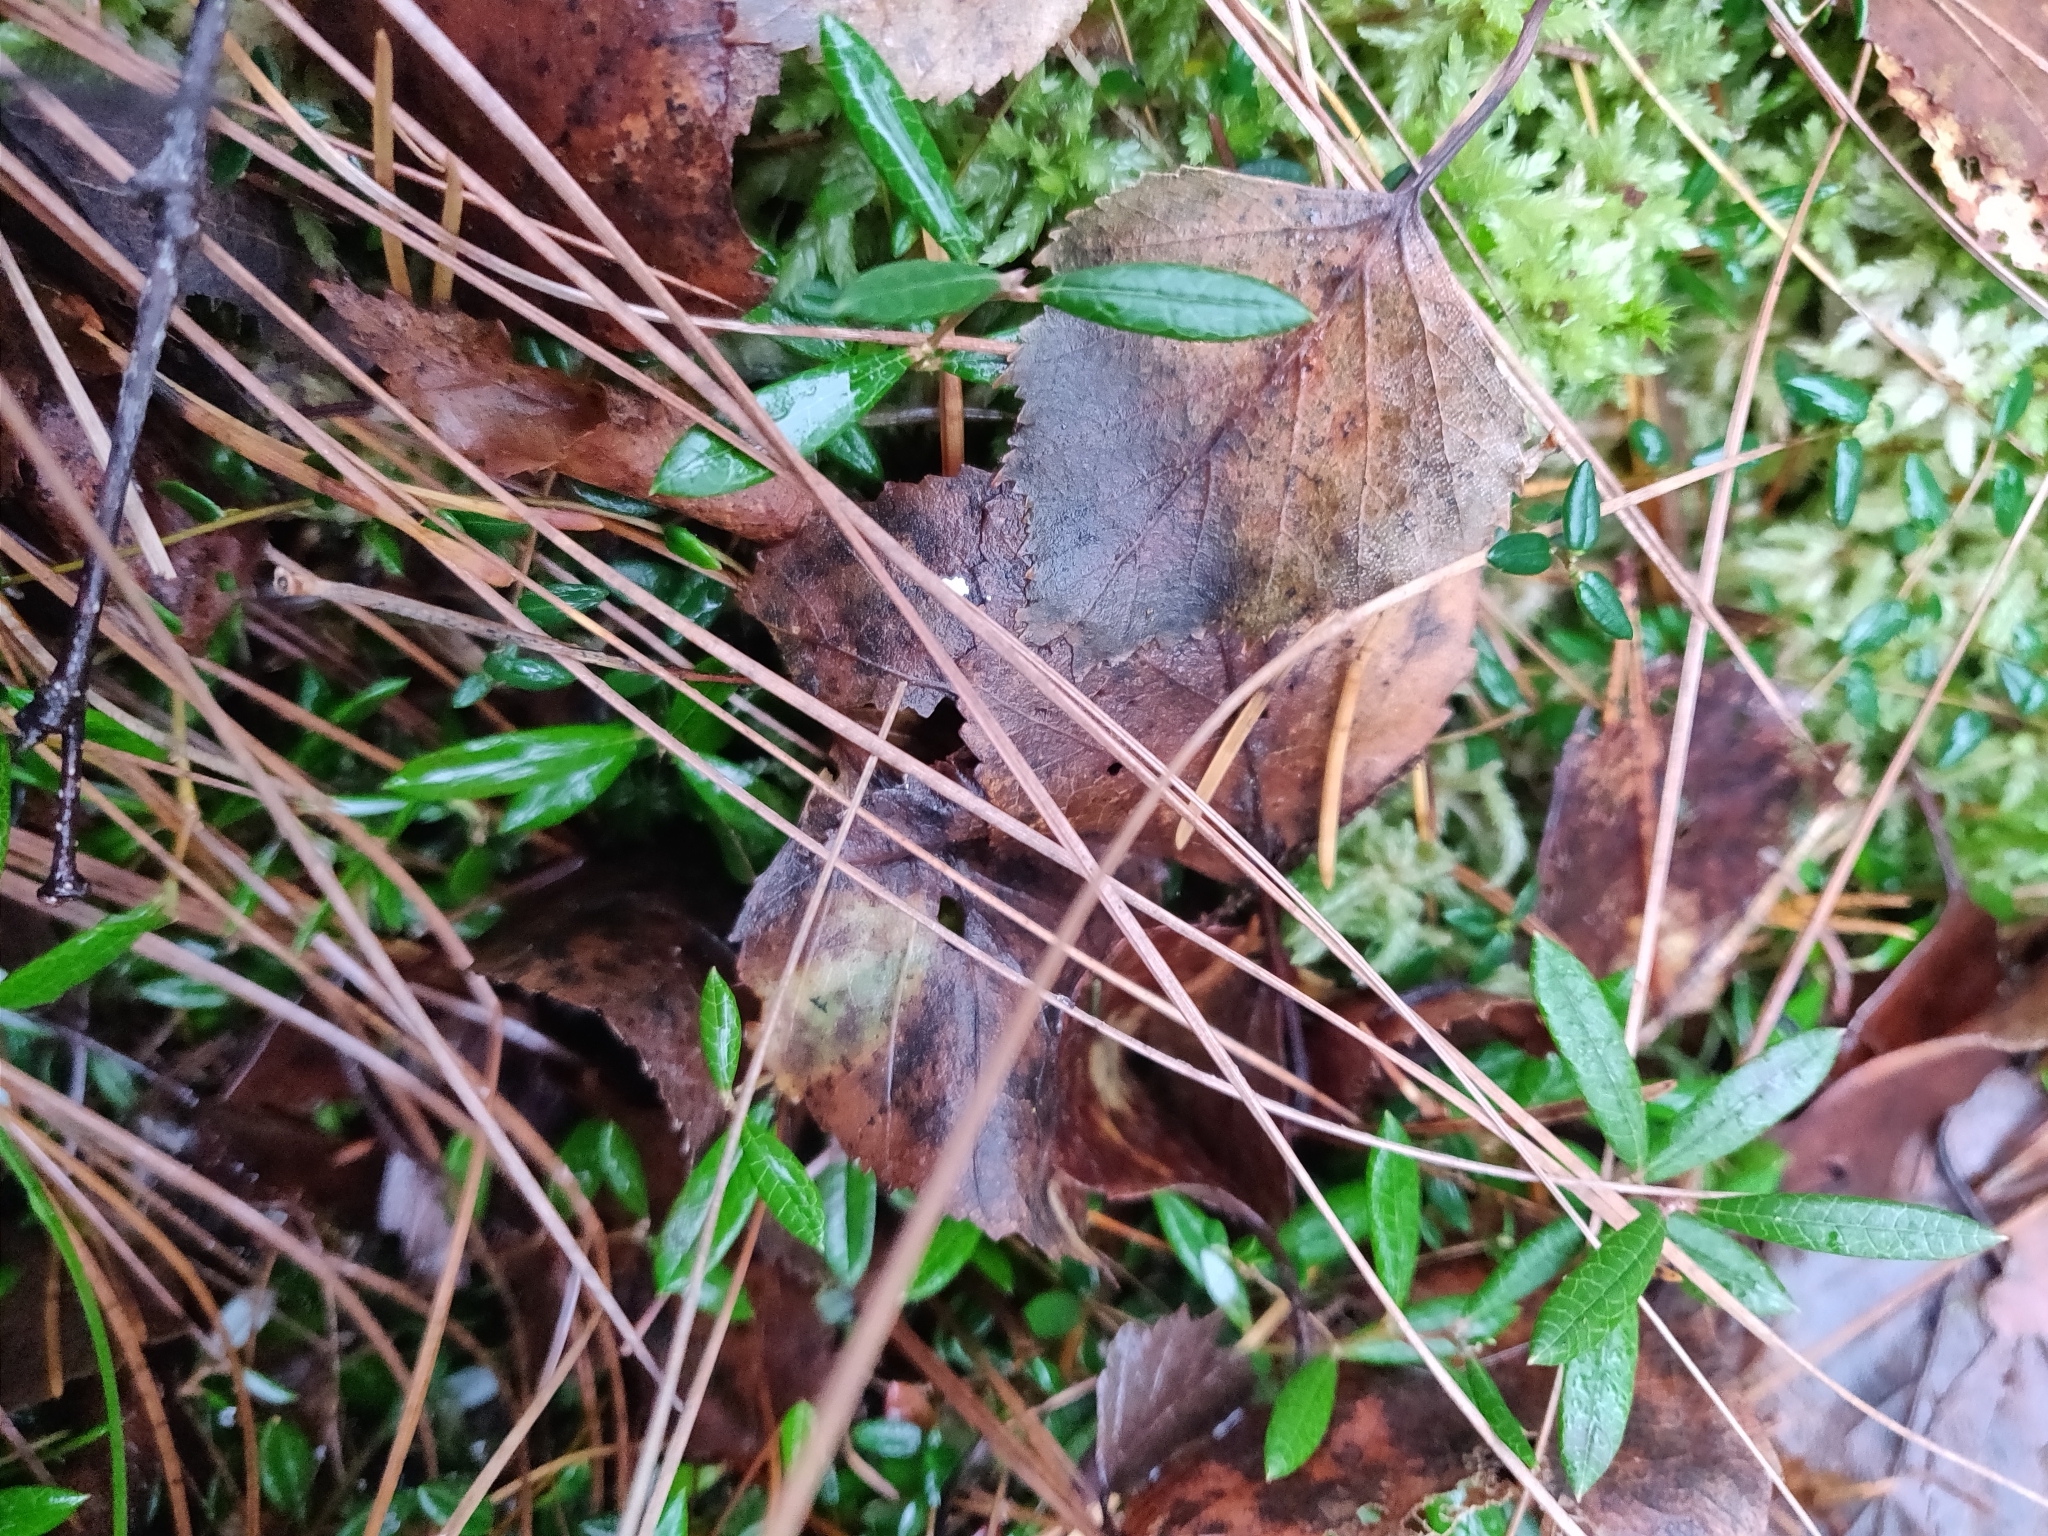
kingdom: Plantae
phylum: Tracheophyta
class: Magnoliopsida
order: Ericales
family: Ericaceae
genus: Andromeda
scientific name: Andromeda polifolia
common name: Bog-rosemary
